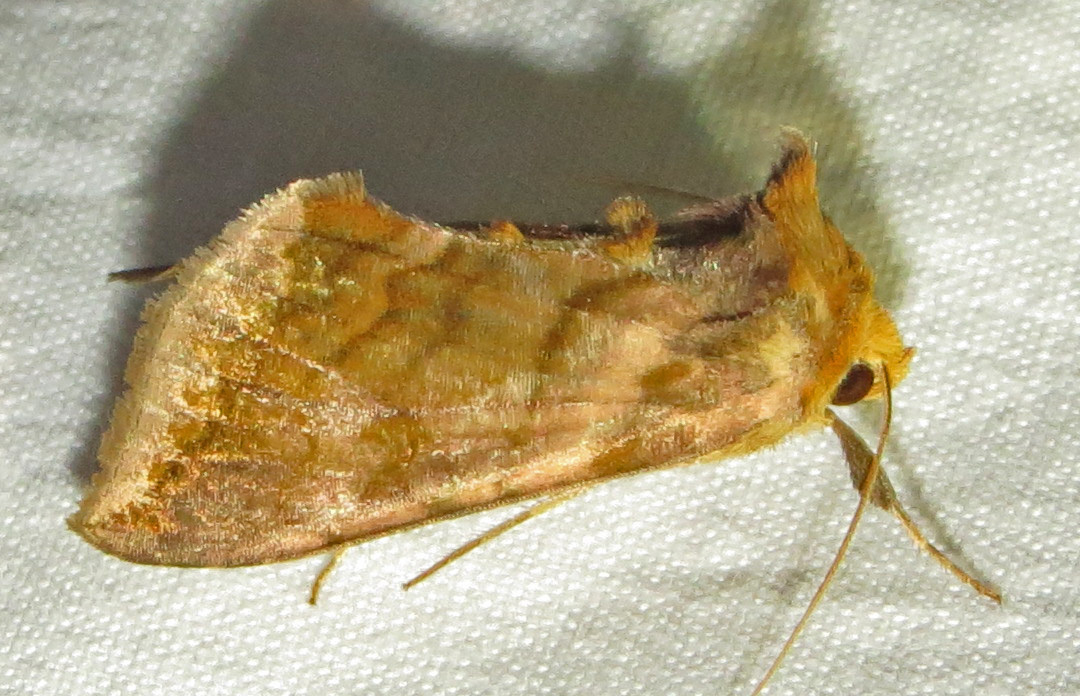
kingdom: Animalia
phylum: Arthropoda
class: Insecta
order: Lepidoptera
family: Noctuidae
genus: Allagrapha
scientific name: Allagrapha aerea
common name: Unspotted looper moth
